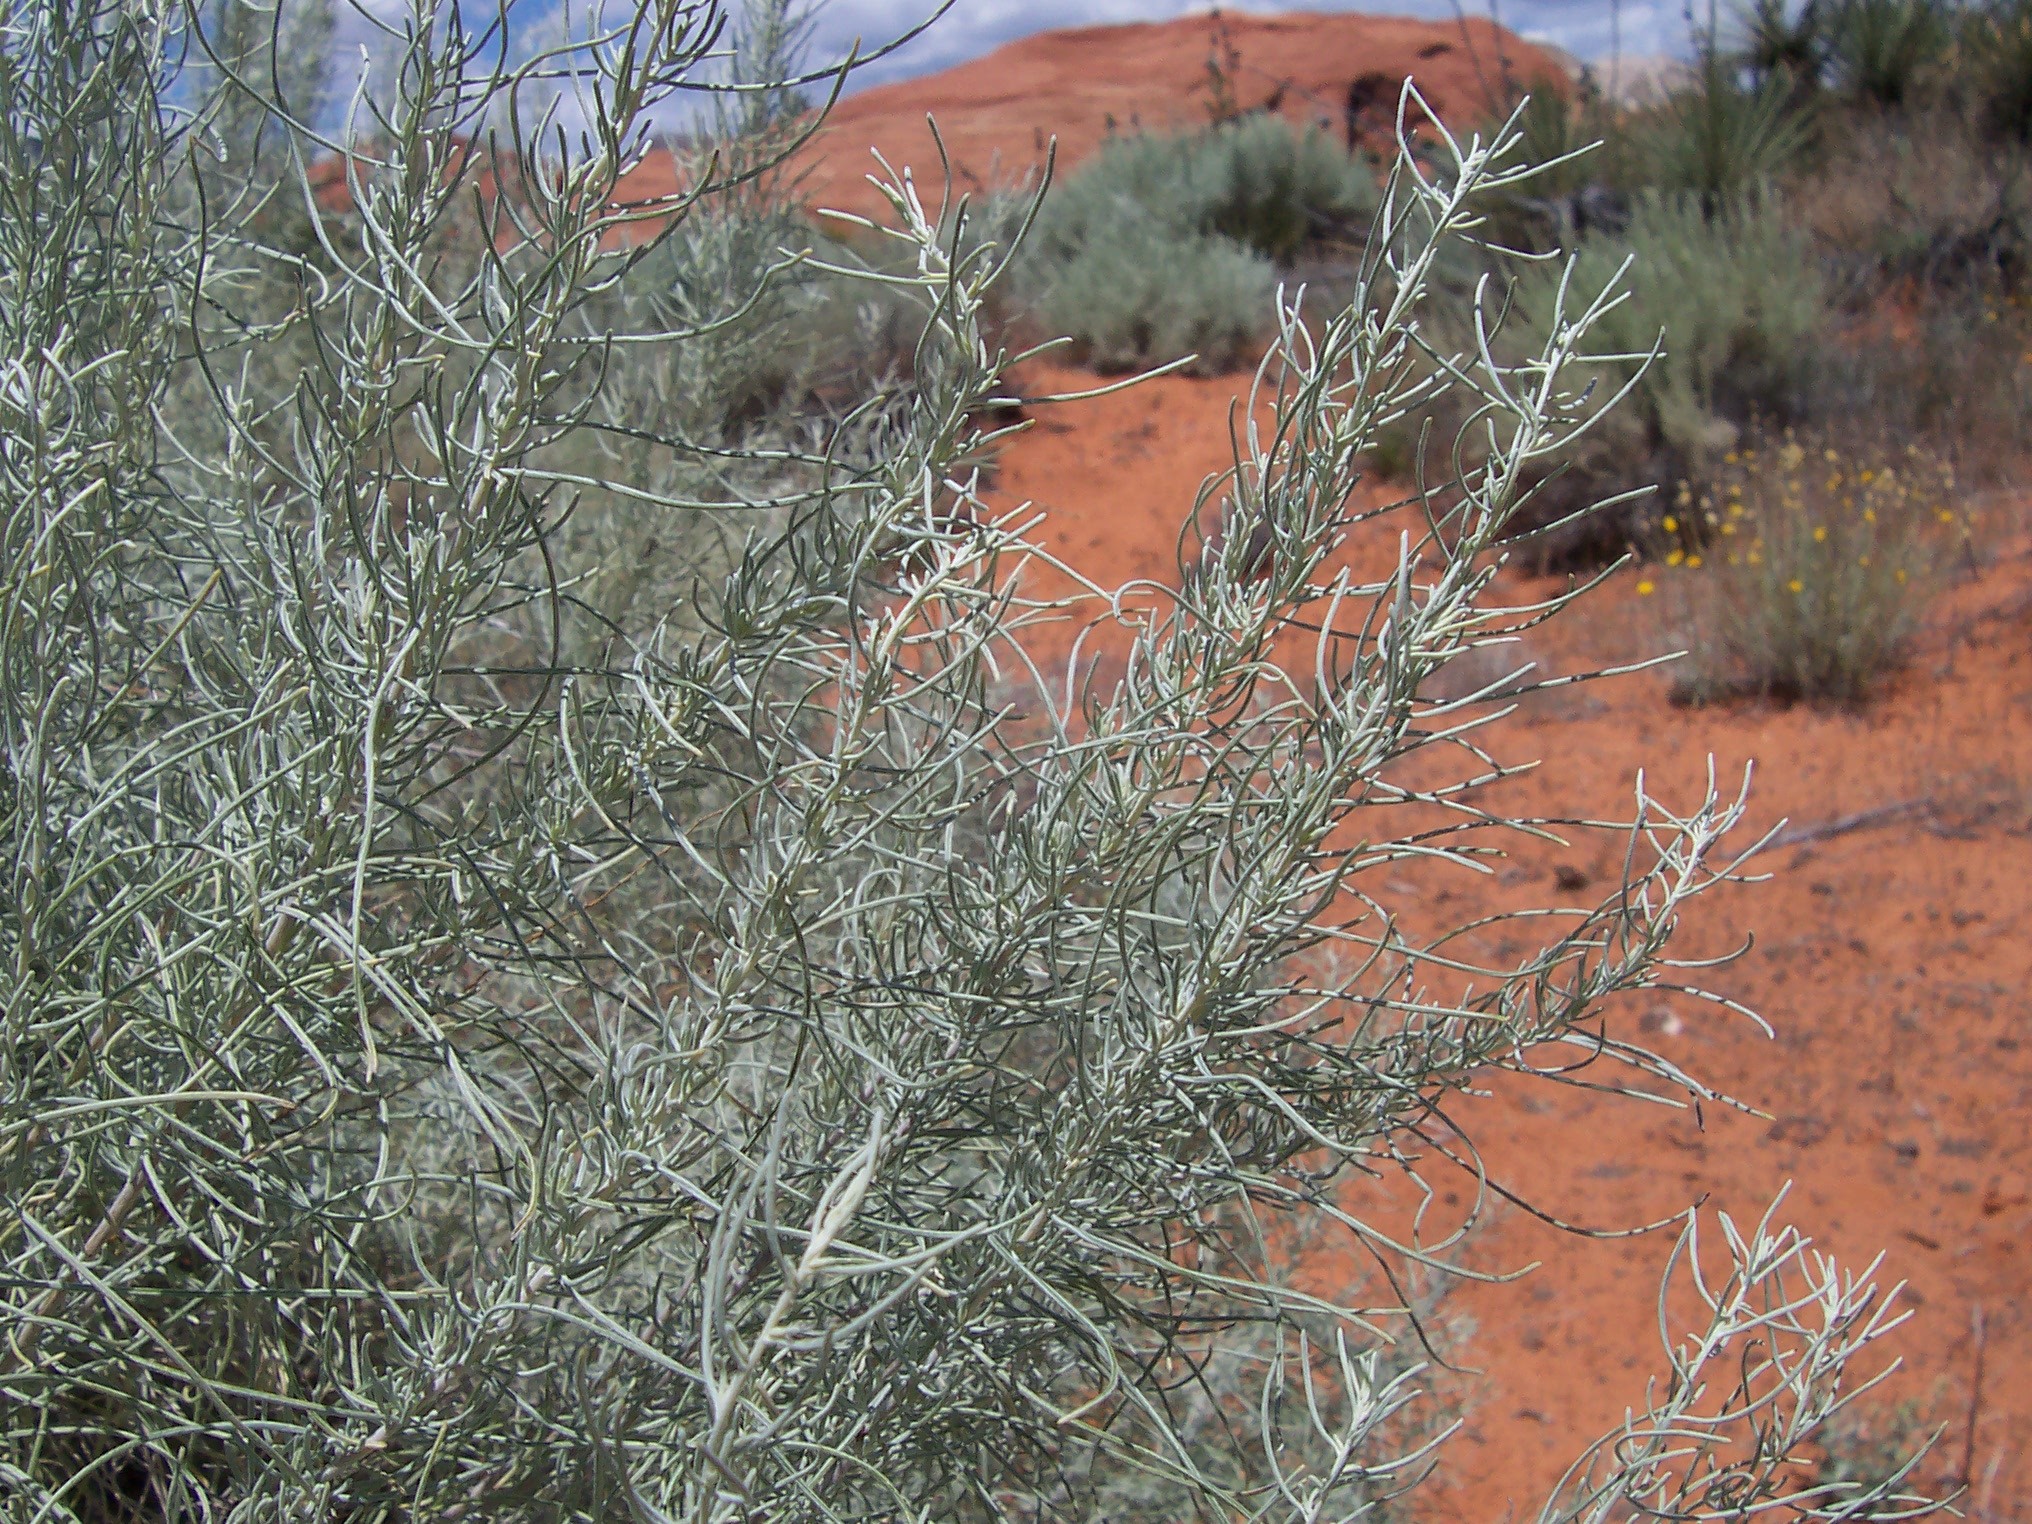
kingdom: Plantae
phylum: Tracheophyta
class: Magnoliopsida
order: Asterales
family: Asteraceae
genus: Artemisia
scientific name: Artemisia filifolia
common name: Sand-sage
